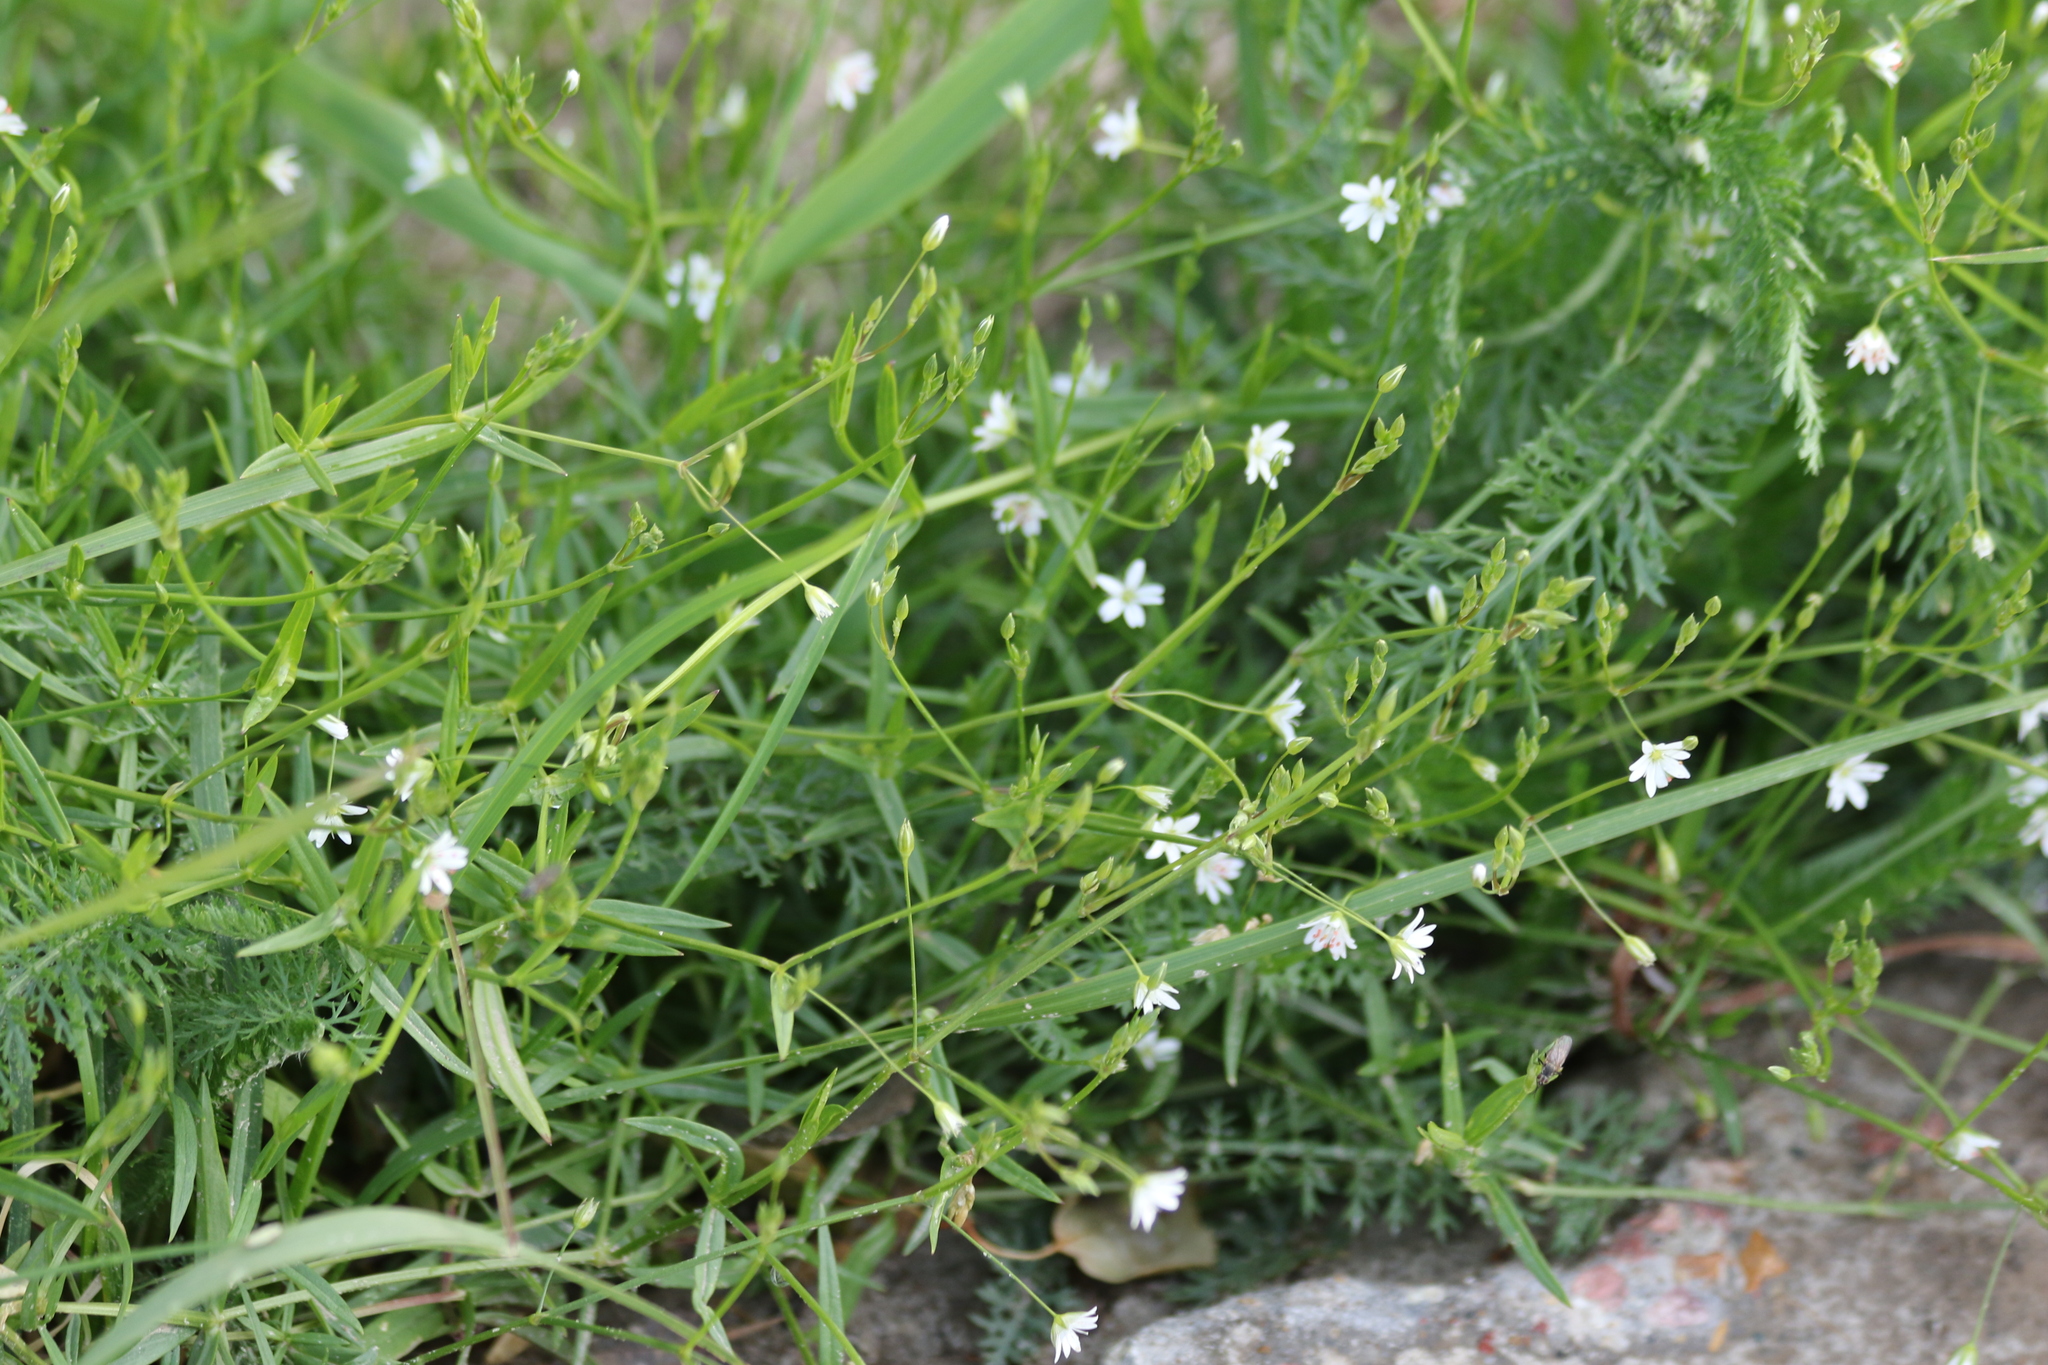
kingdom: Plantae
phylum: Tracheophyta
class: Magnoliopsida
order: Caryophyllales
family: Caryophyllaceae
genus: Stellaria
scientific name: Stellaria graminea
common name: Grass-like starwort
